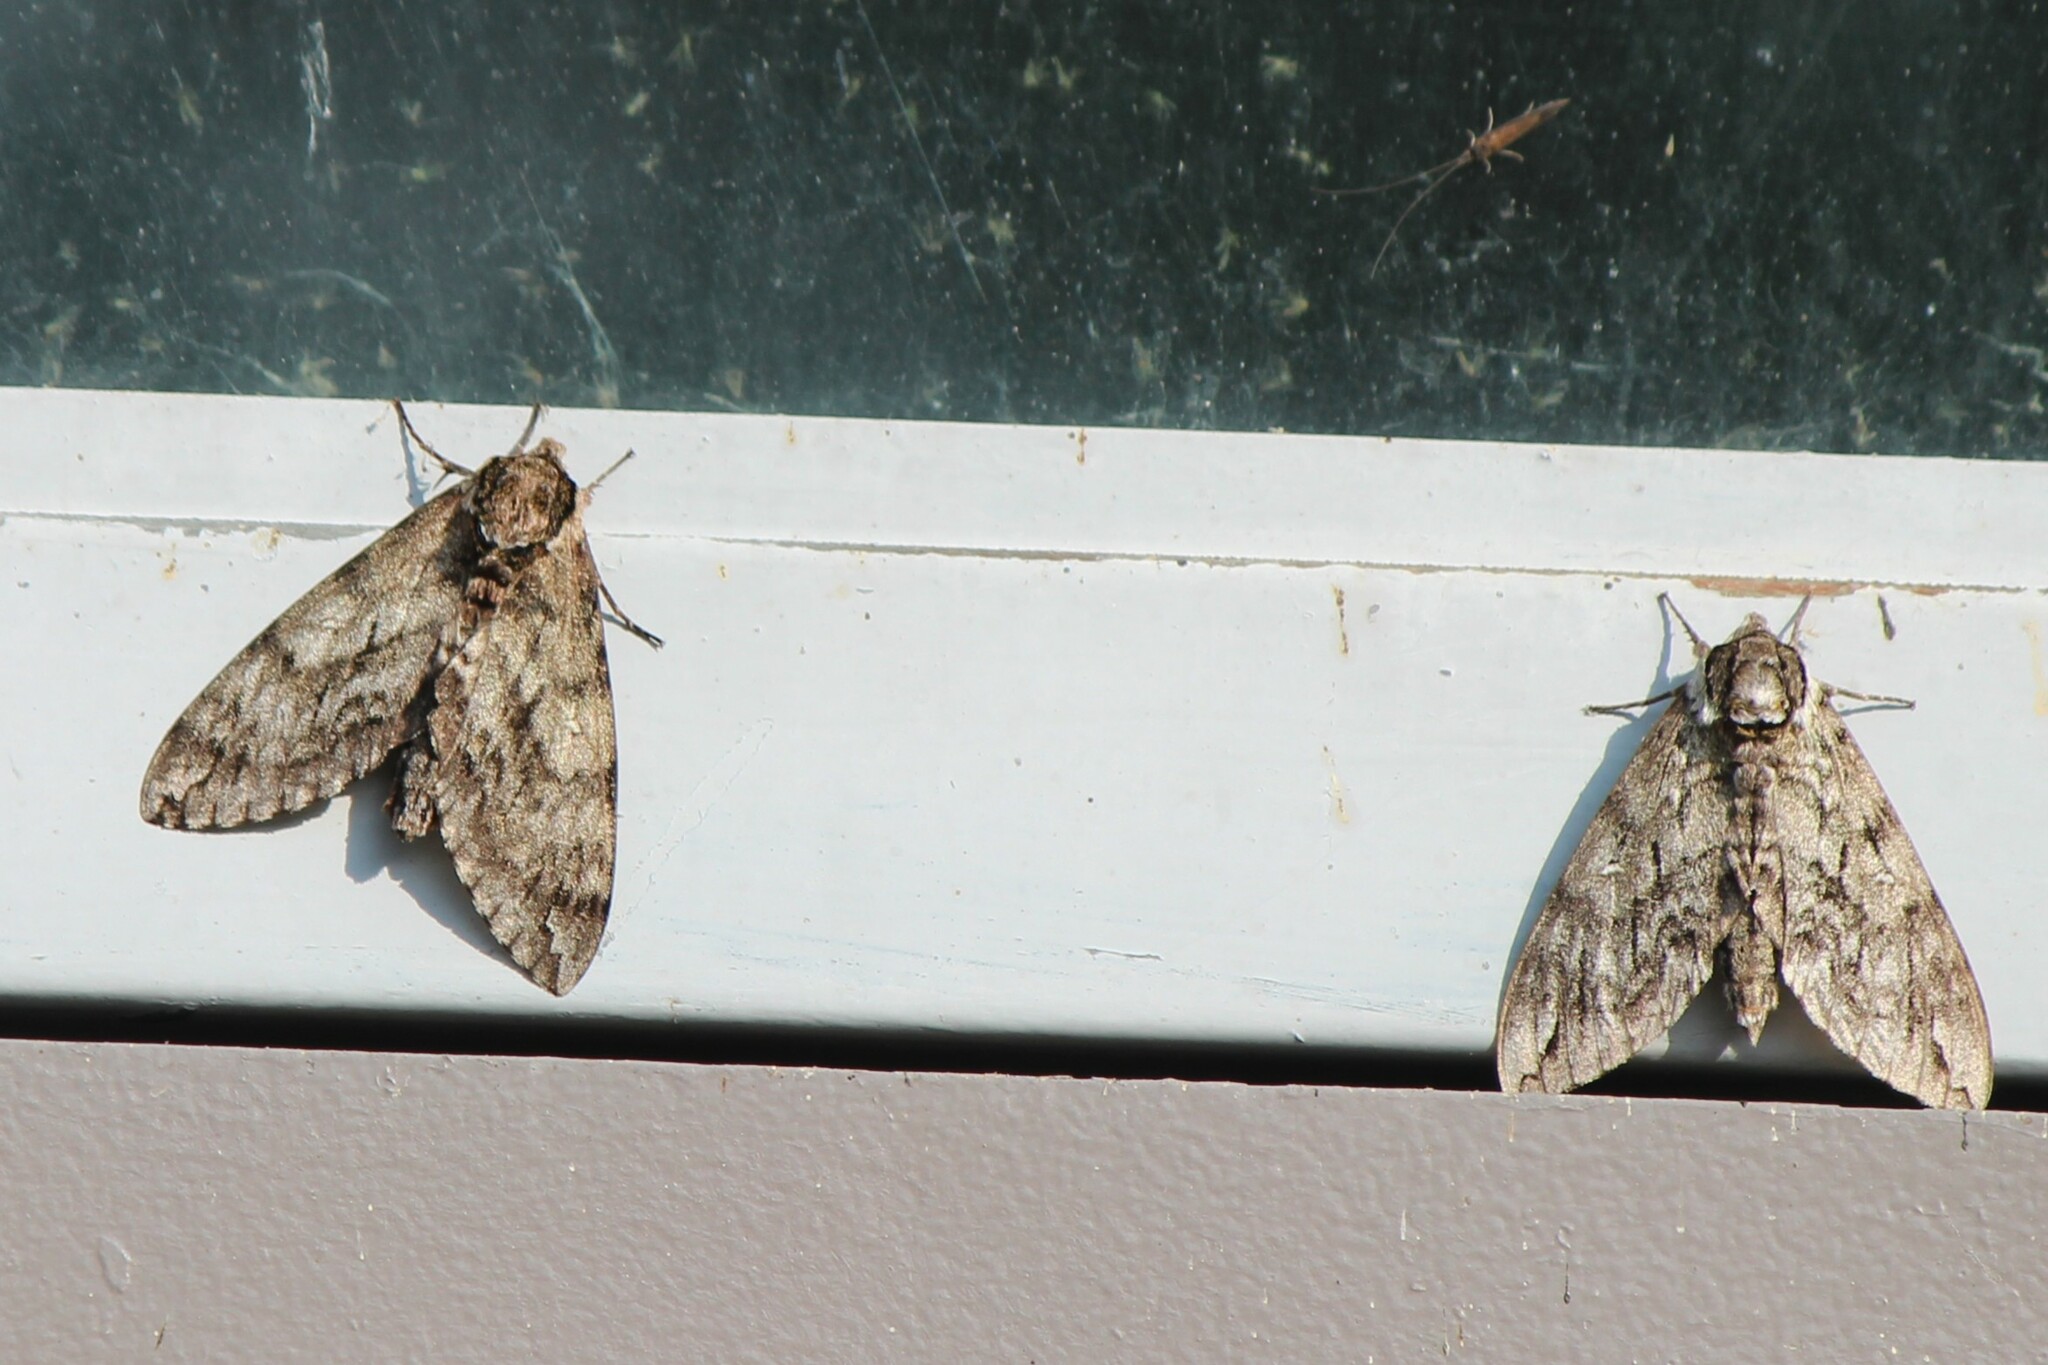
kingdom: Animalia
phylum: Arthropoda
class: Insecta
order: Lepidoptera
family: Sphingidae
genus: Ceratomia
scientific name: Ceratomia undulosa
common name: Waved sphinx
